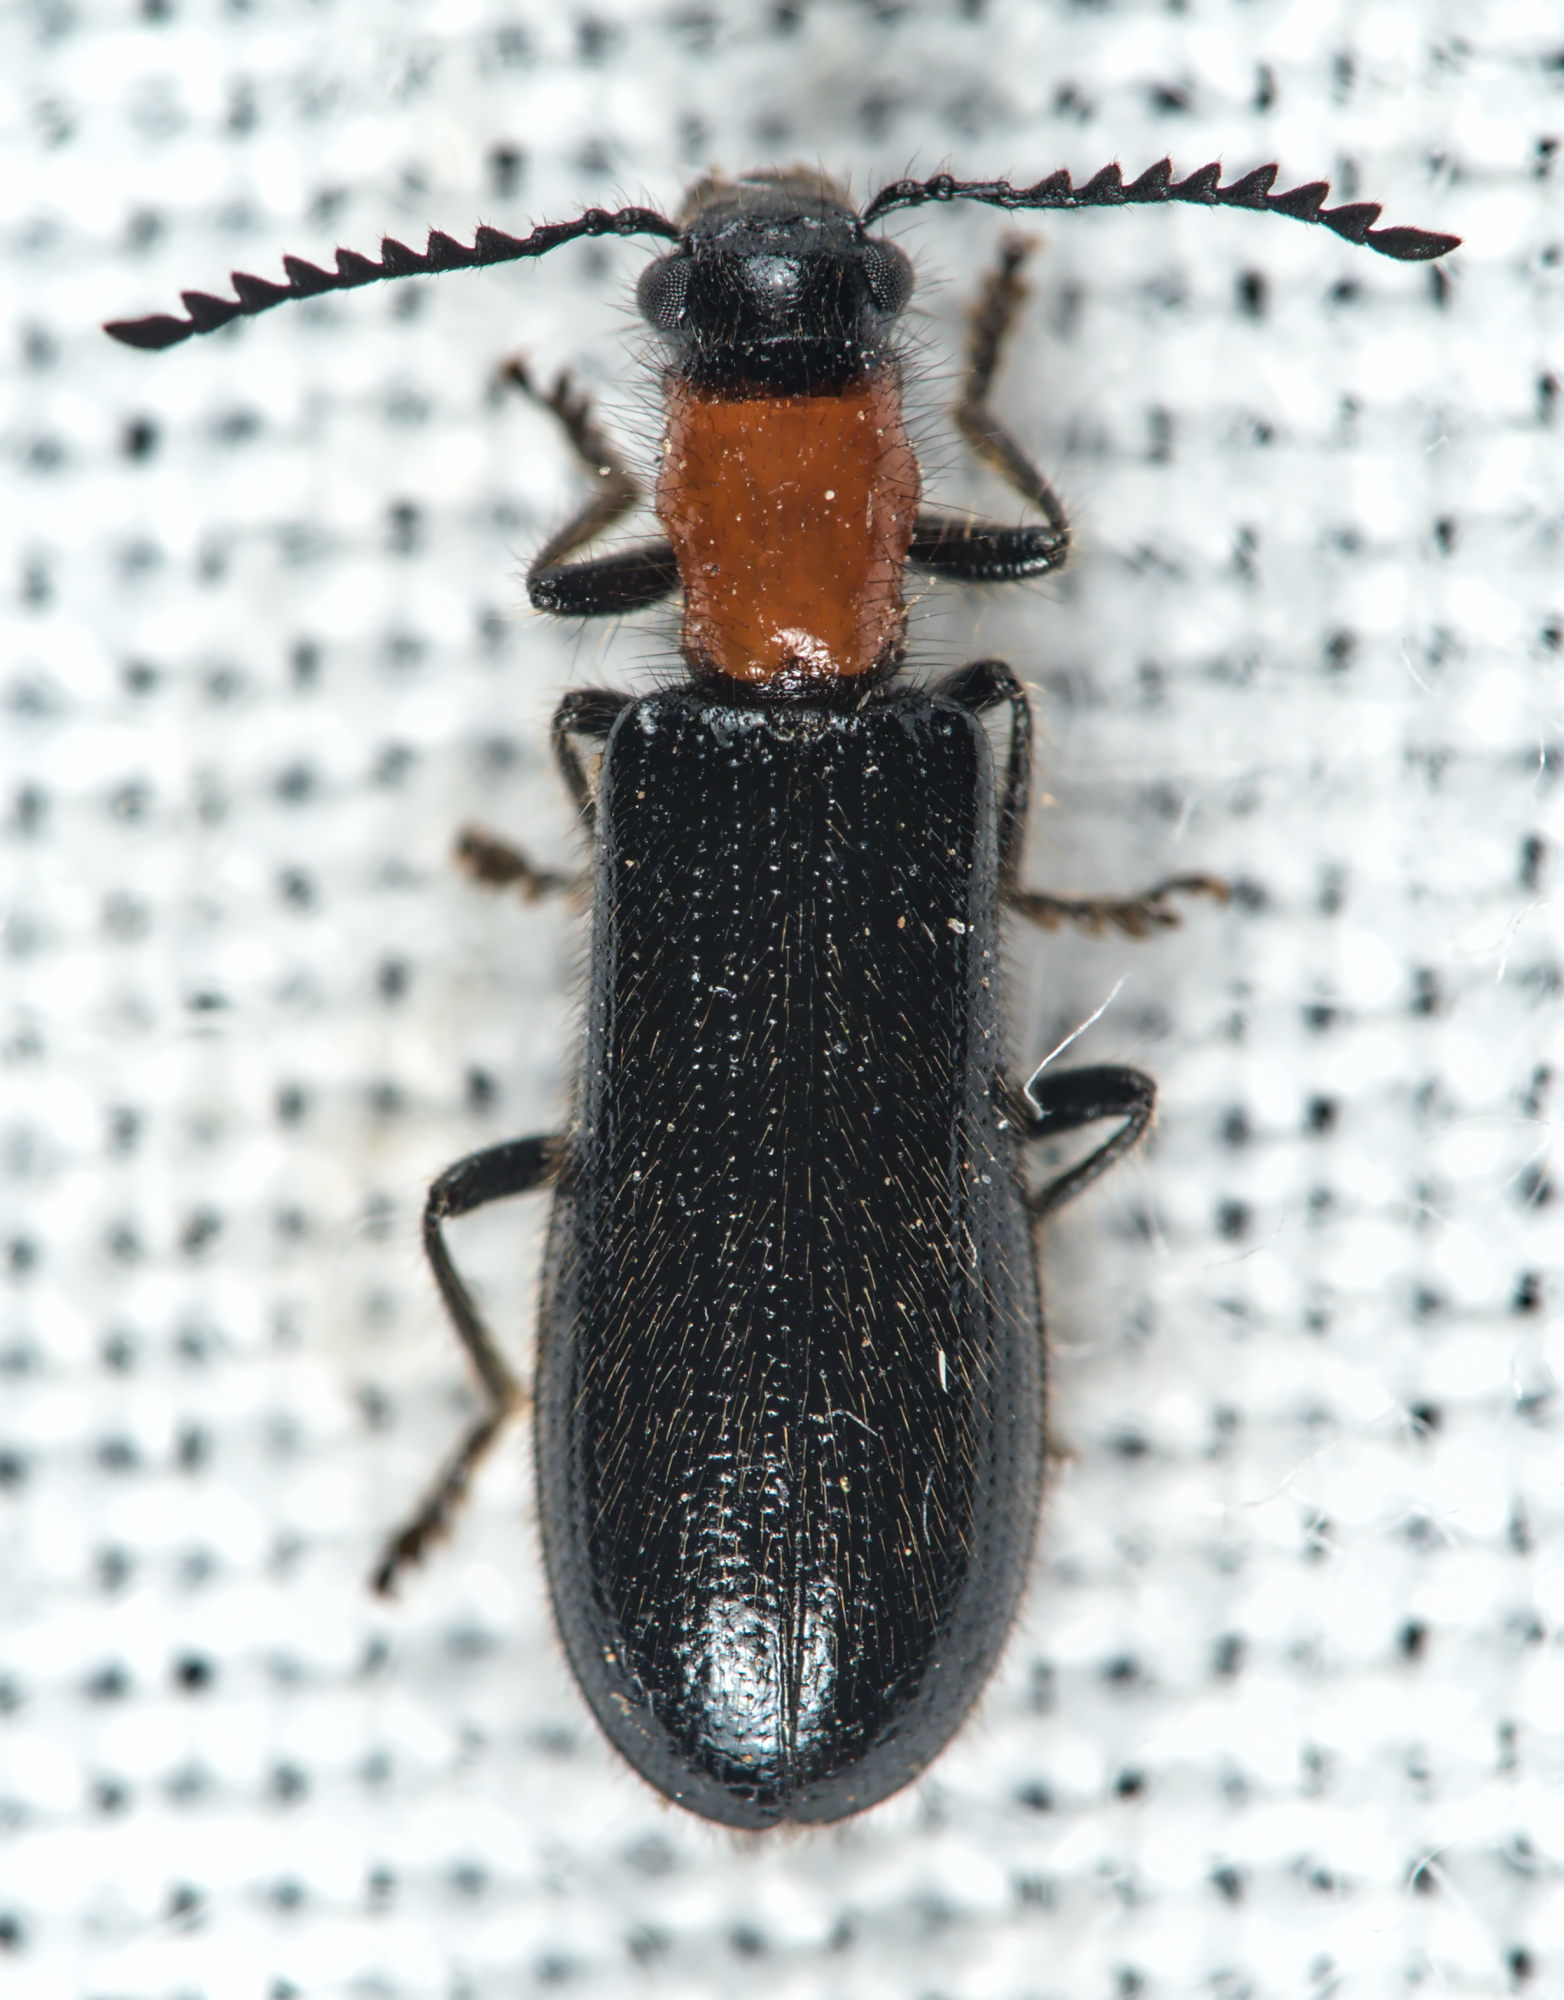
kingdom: Animalia
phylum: Arthropoda
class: Insecta
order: Coleoptera
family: Cleridae
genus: Tillus
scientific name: Tillus elongatus
